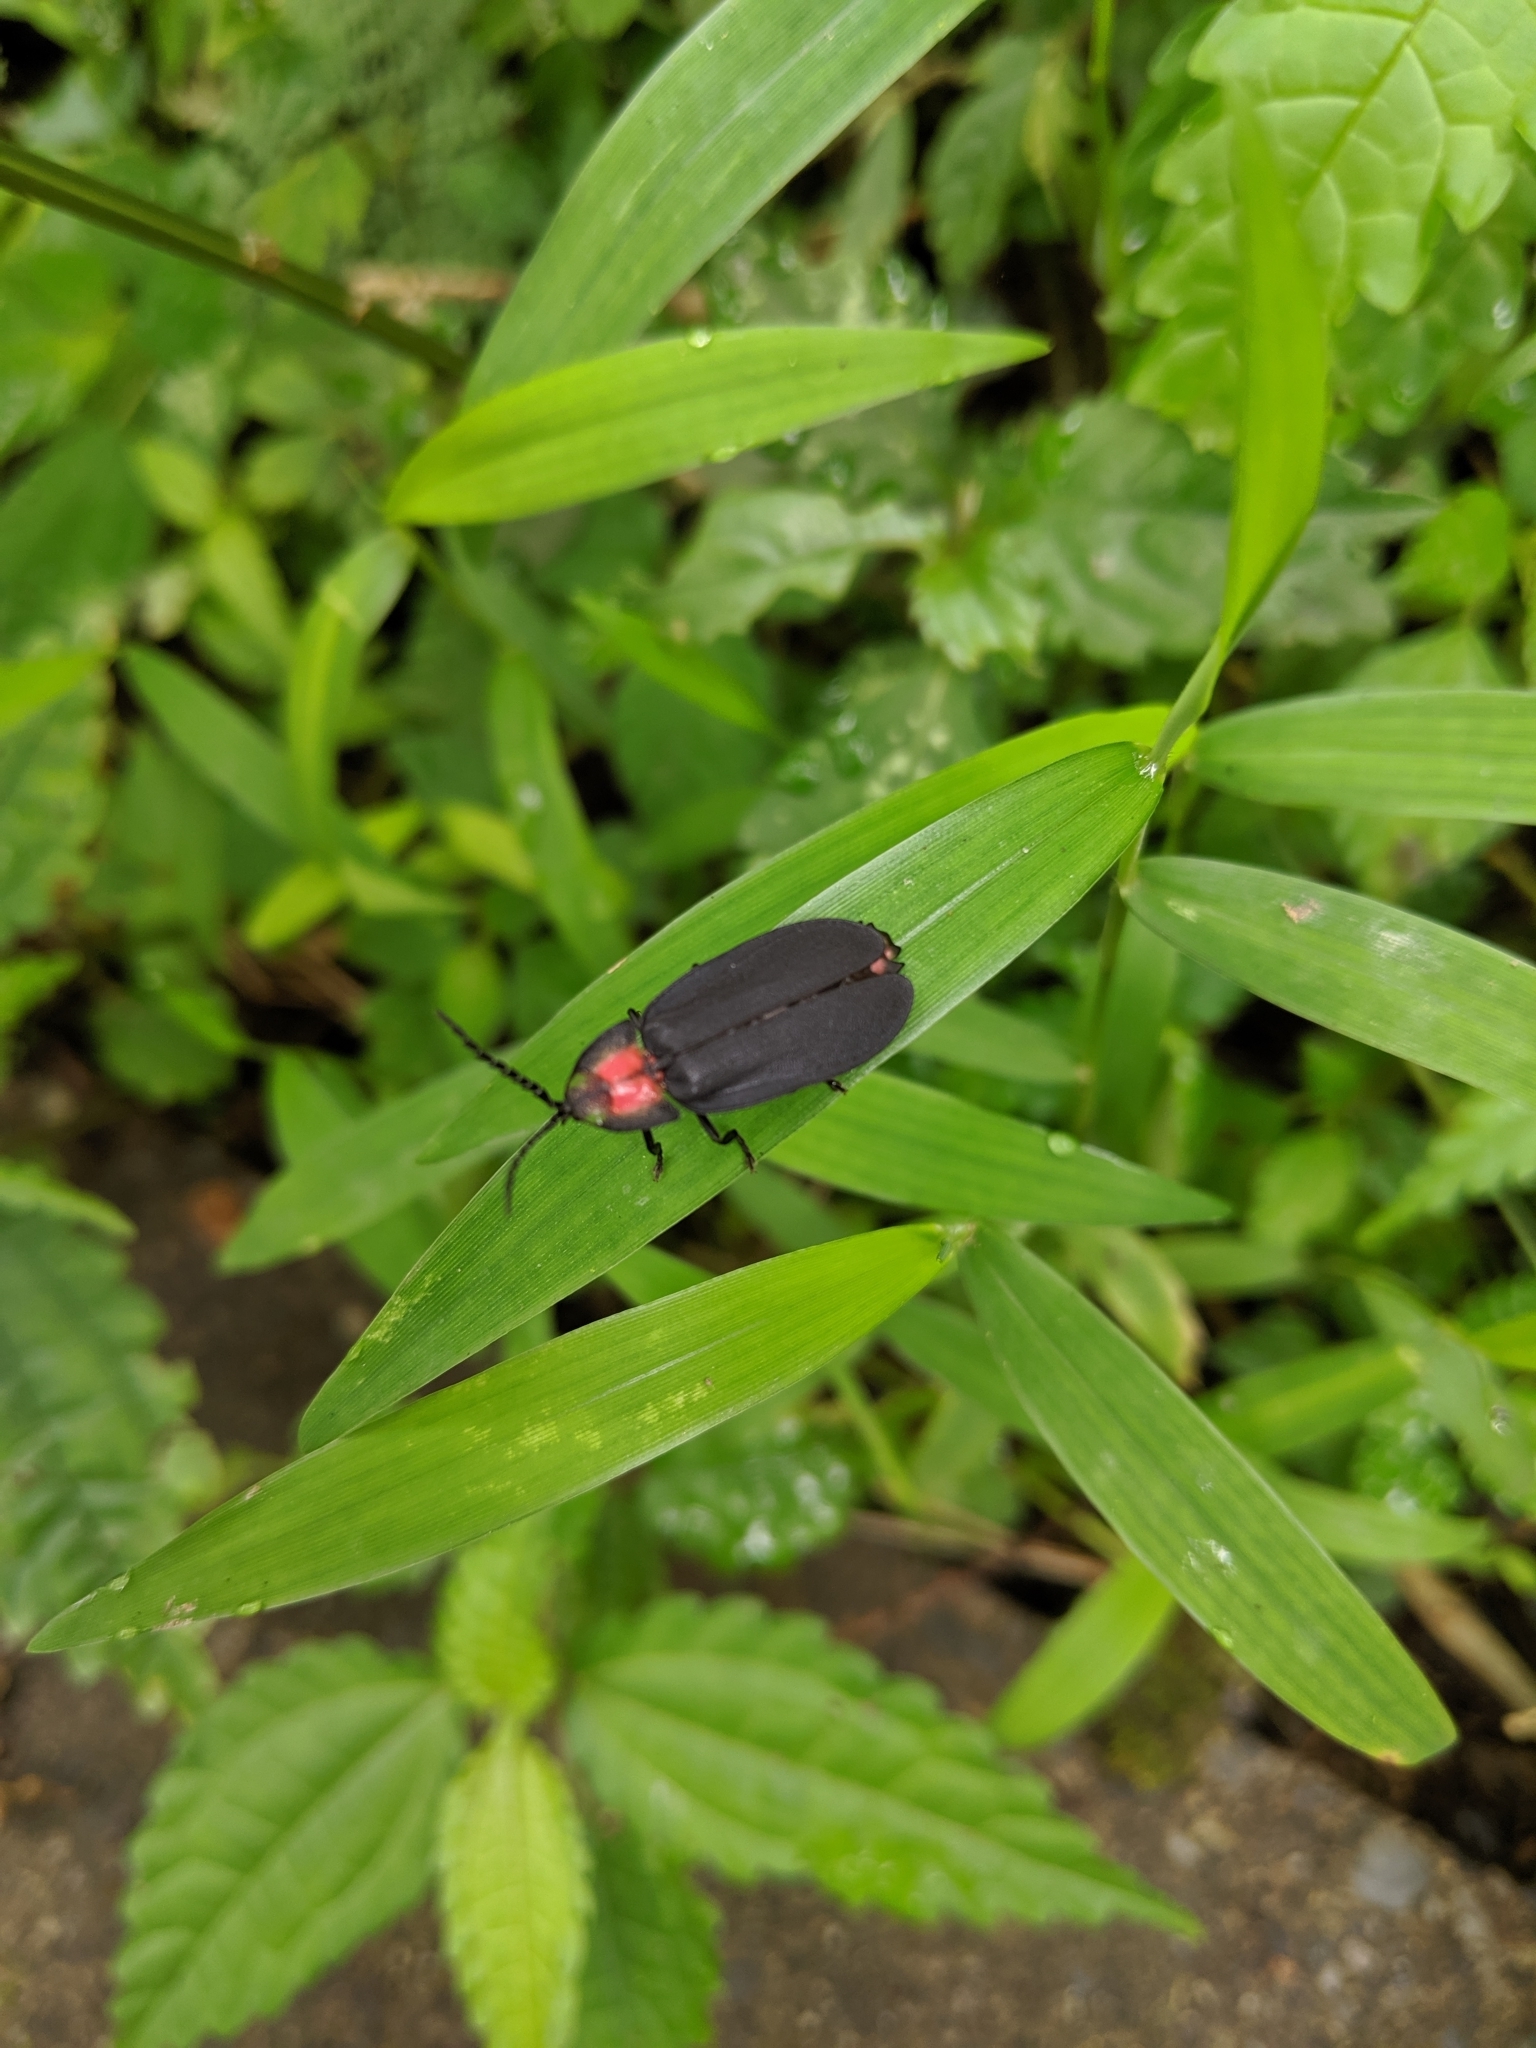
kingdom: Animalia
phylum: Arthropoda
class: Insecta
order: Coleoptera
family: Lampyridae
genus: Pyrocoelia
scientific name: Pyrocoelia formosana
